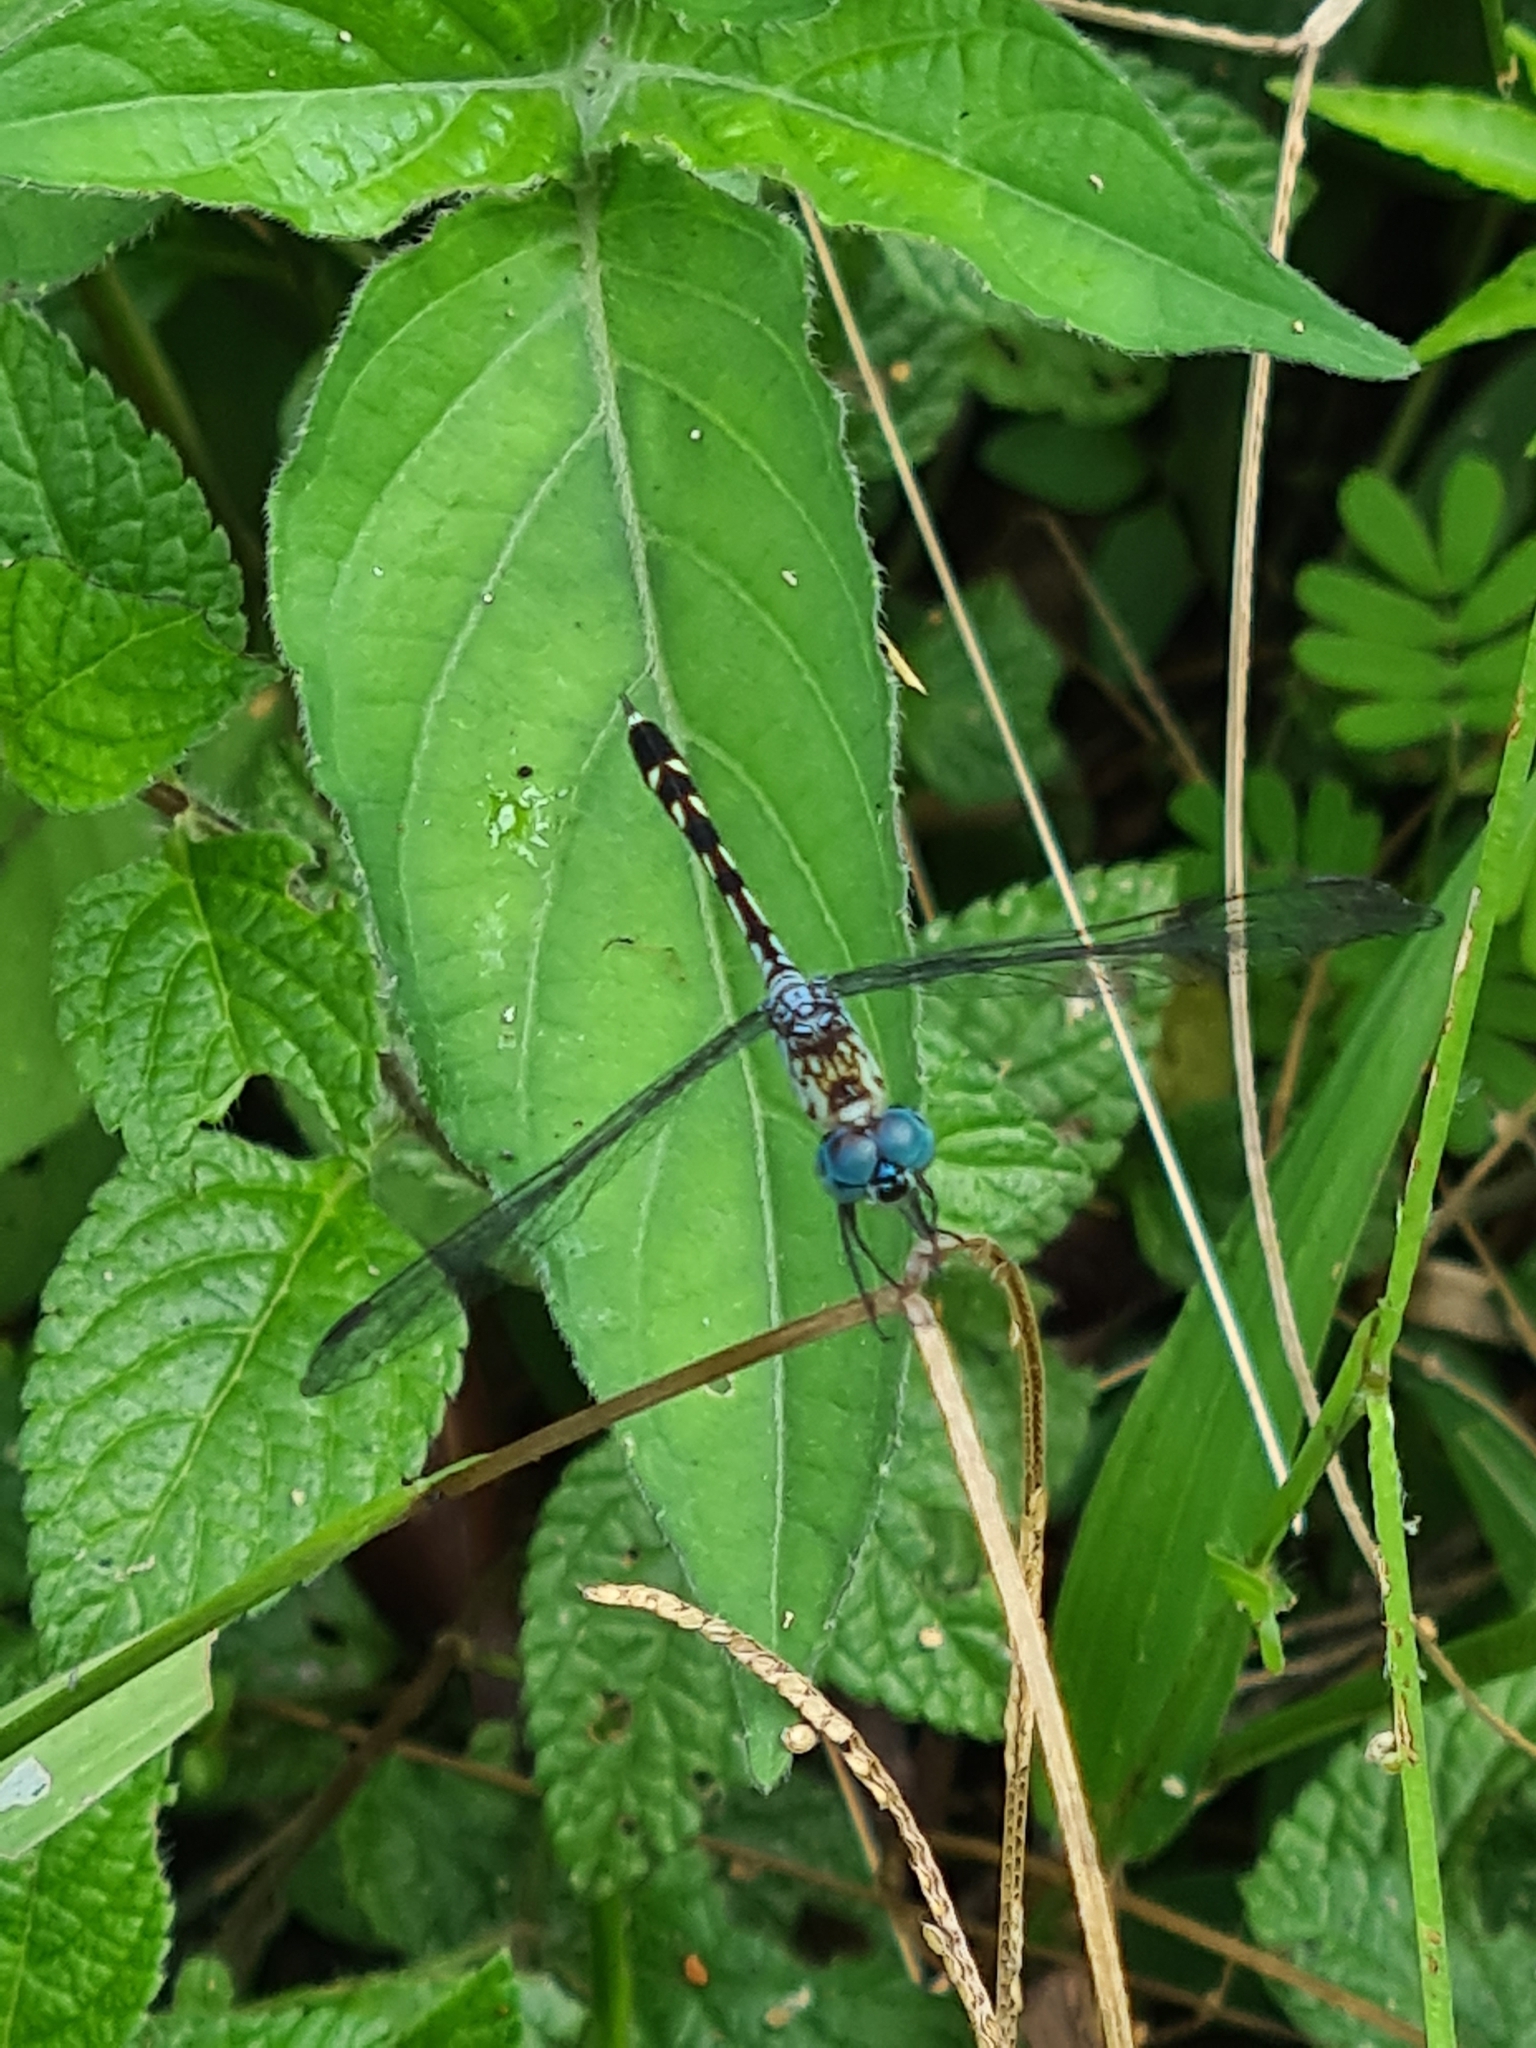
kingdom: Animalia
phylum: Arthropoda
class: Insecta
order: Odonata
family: Libellulidae
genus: Anatya
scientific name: Anatya guttata
